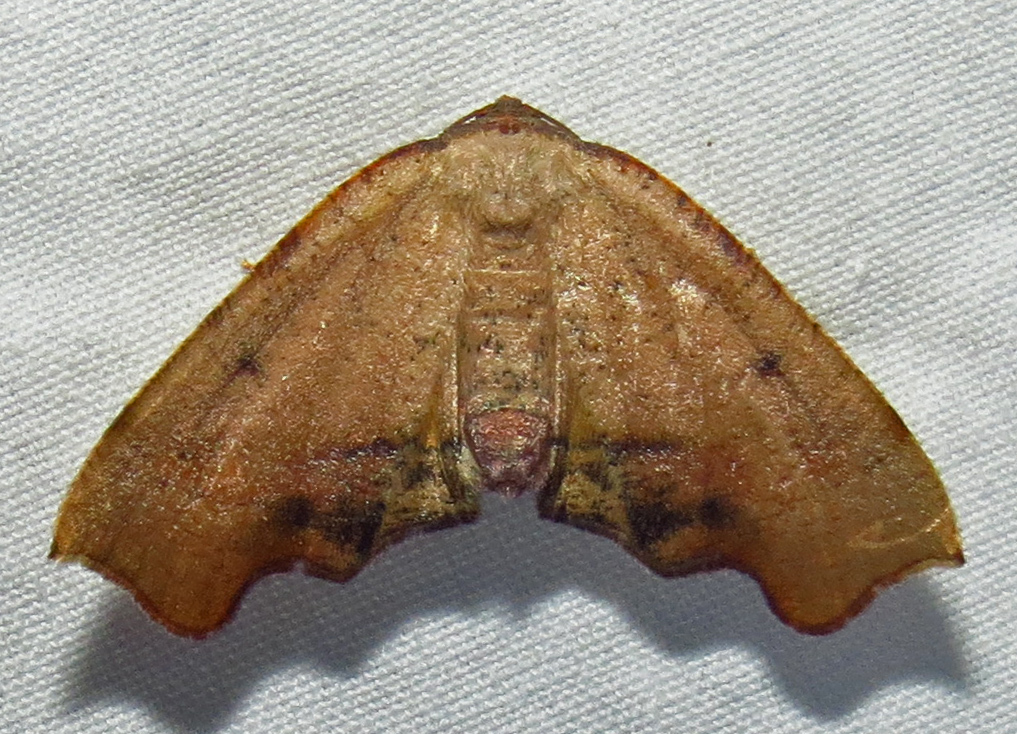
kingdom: Animalia
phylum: Arthropoda
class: Insecta
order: Lepidoptera
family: Geometridae
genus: Plagodis
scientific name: Plagodis fervidaria
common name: Fervid plagodis
